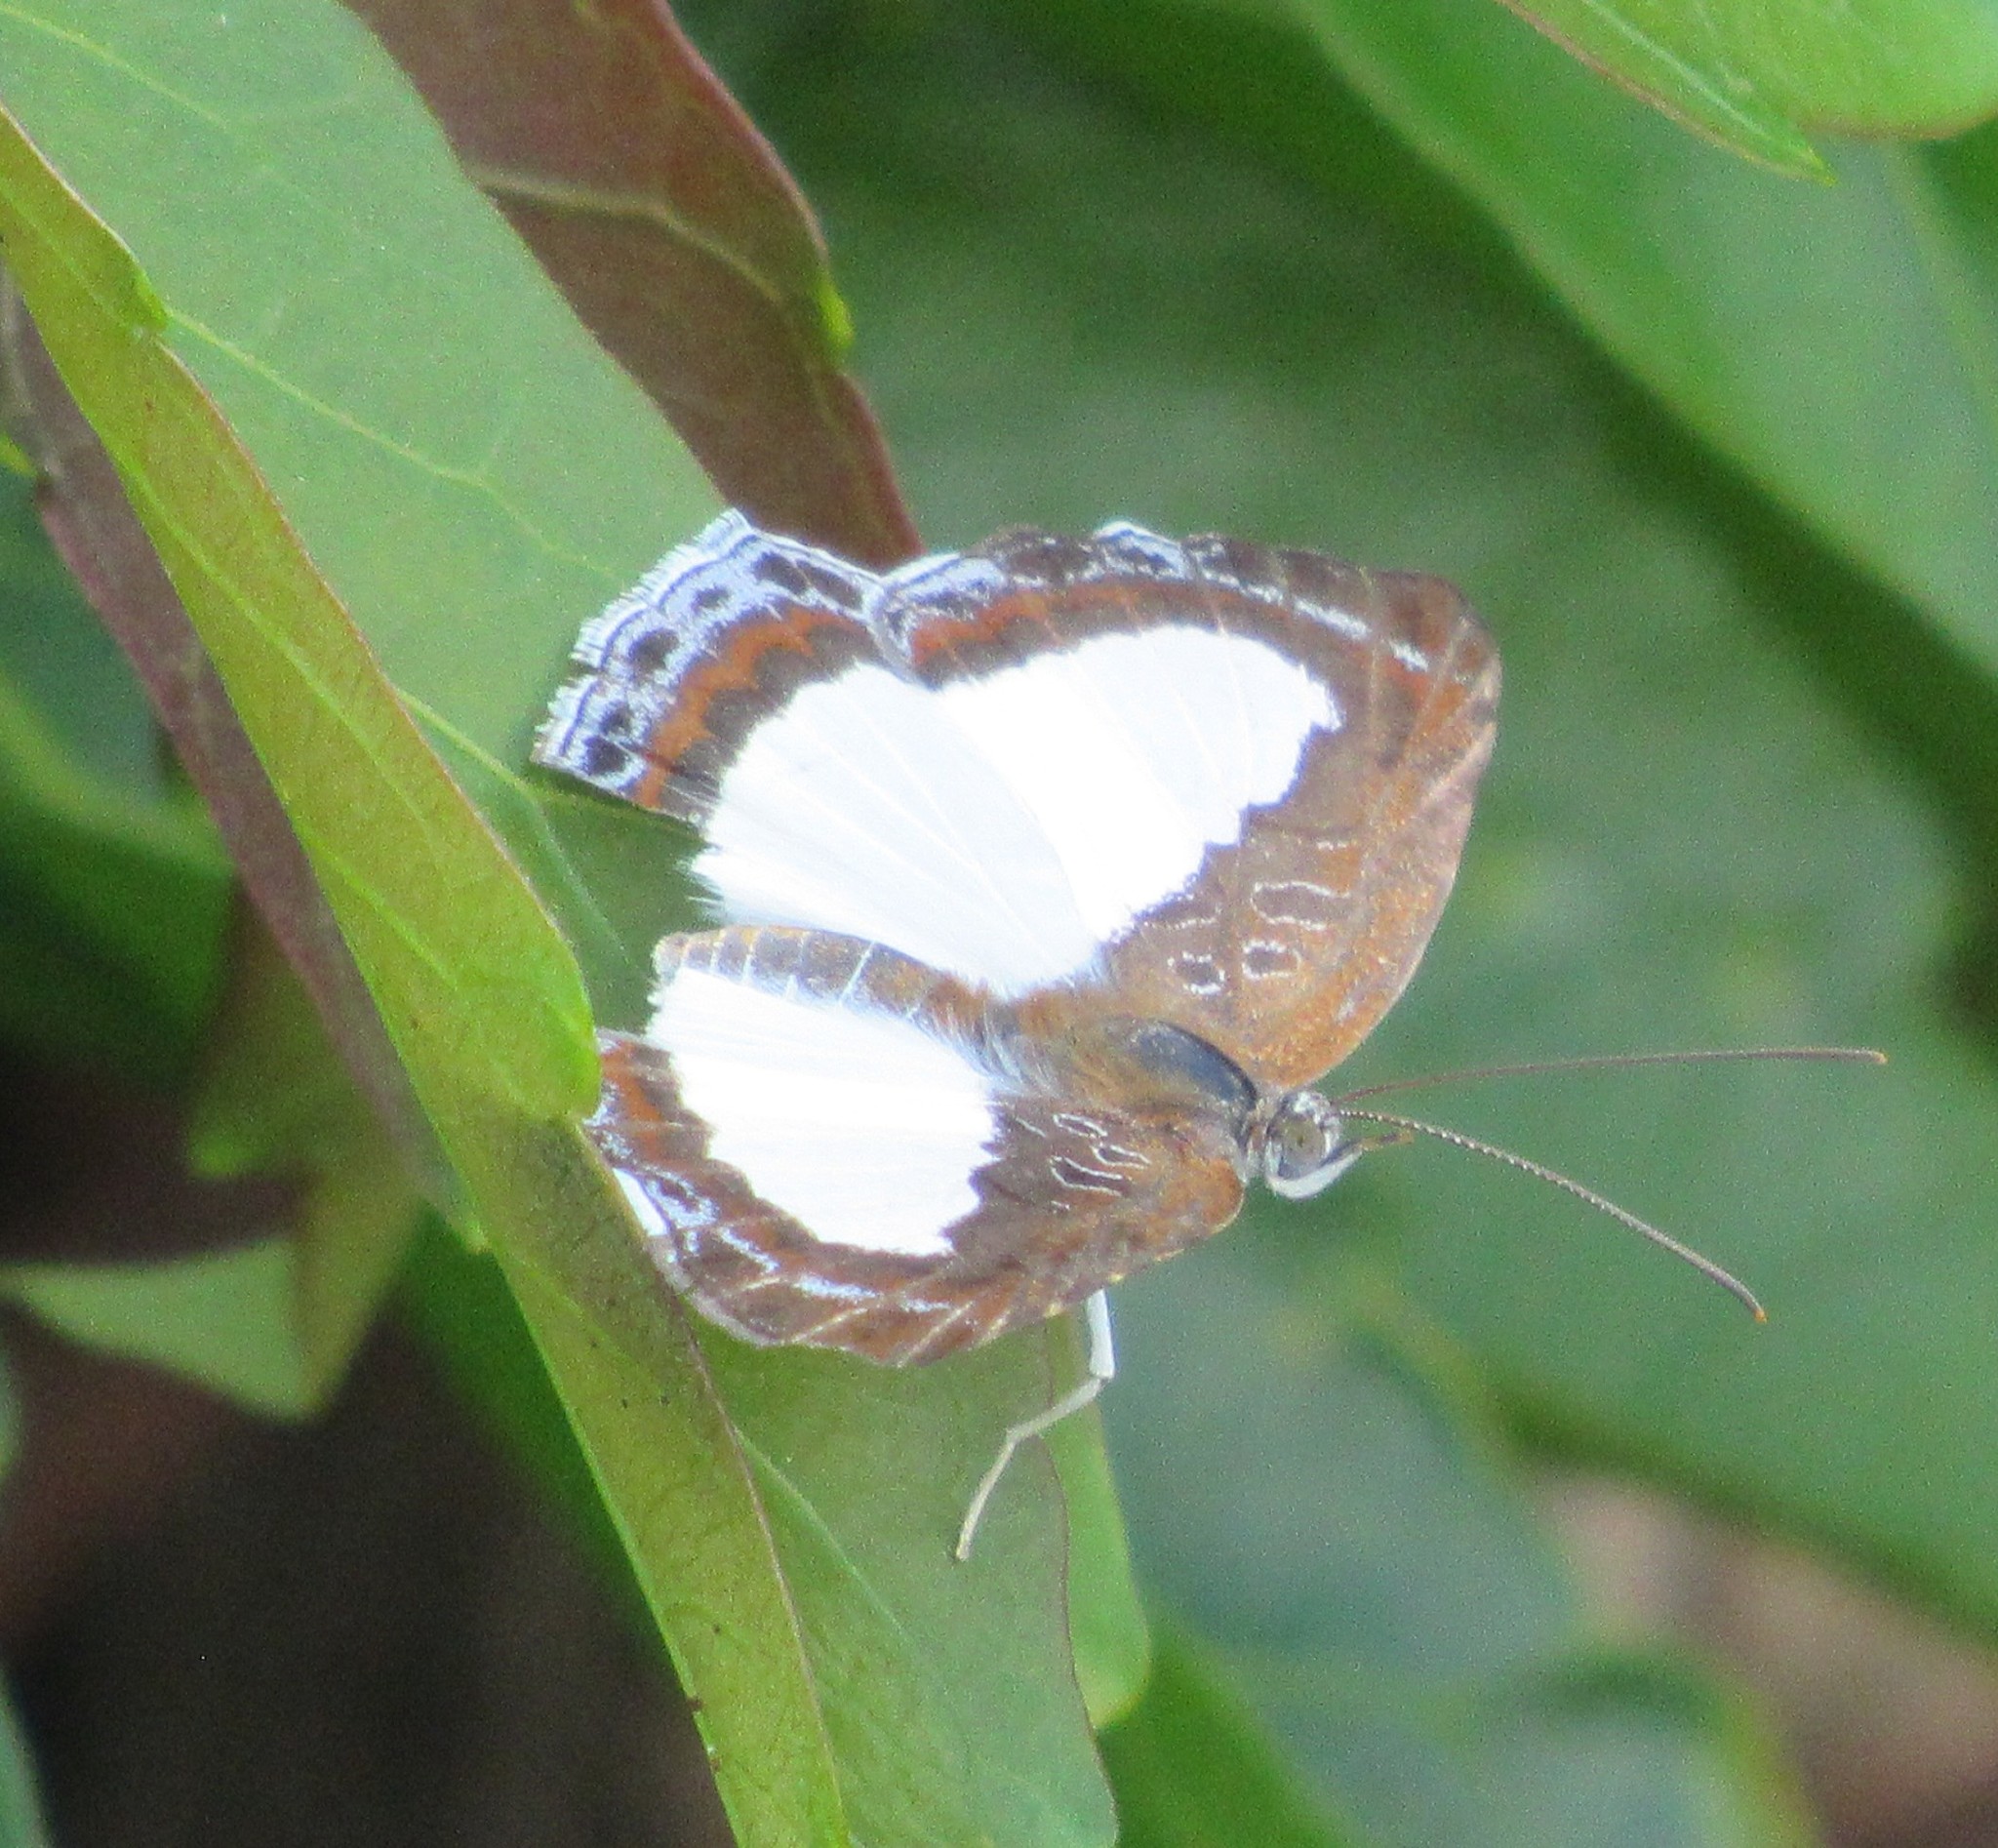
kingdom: Animalia
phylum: Arthropoda
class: Insecta
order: Lepidoptera
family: Riodinidae
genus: Nymula
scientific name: Nymula calyce
